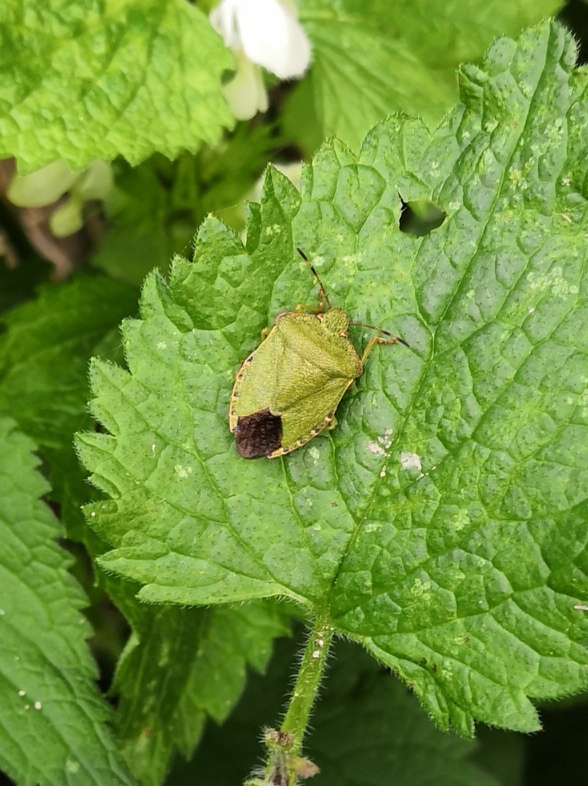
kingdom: Animalia
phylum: Arthropoda
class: Insecta
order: Hemiptera
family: Pentatomidae
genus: Palomena
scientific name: Palomena prasina
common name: Green shieldbug
